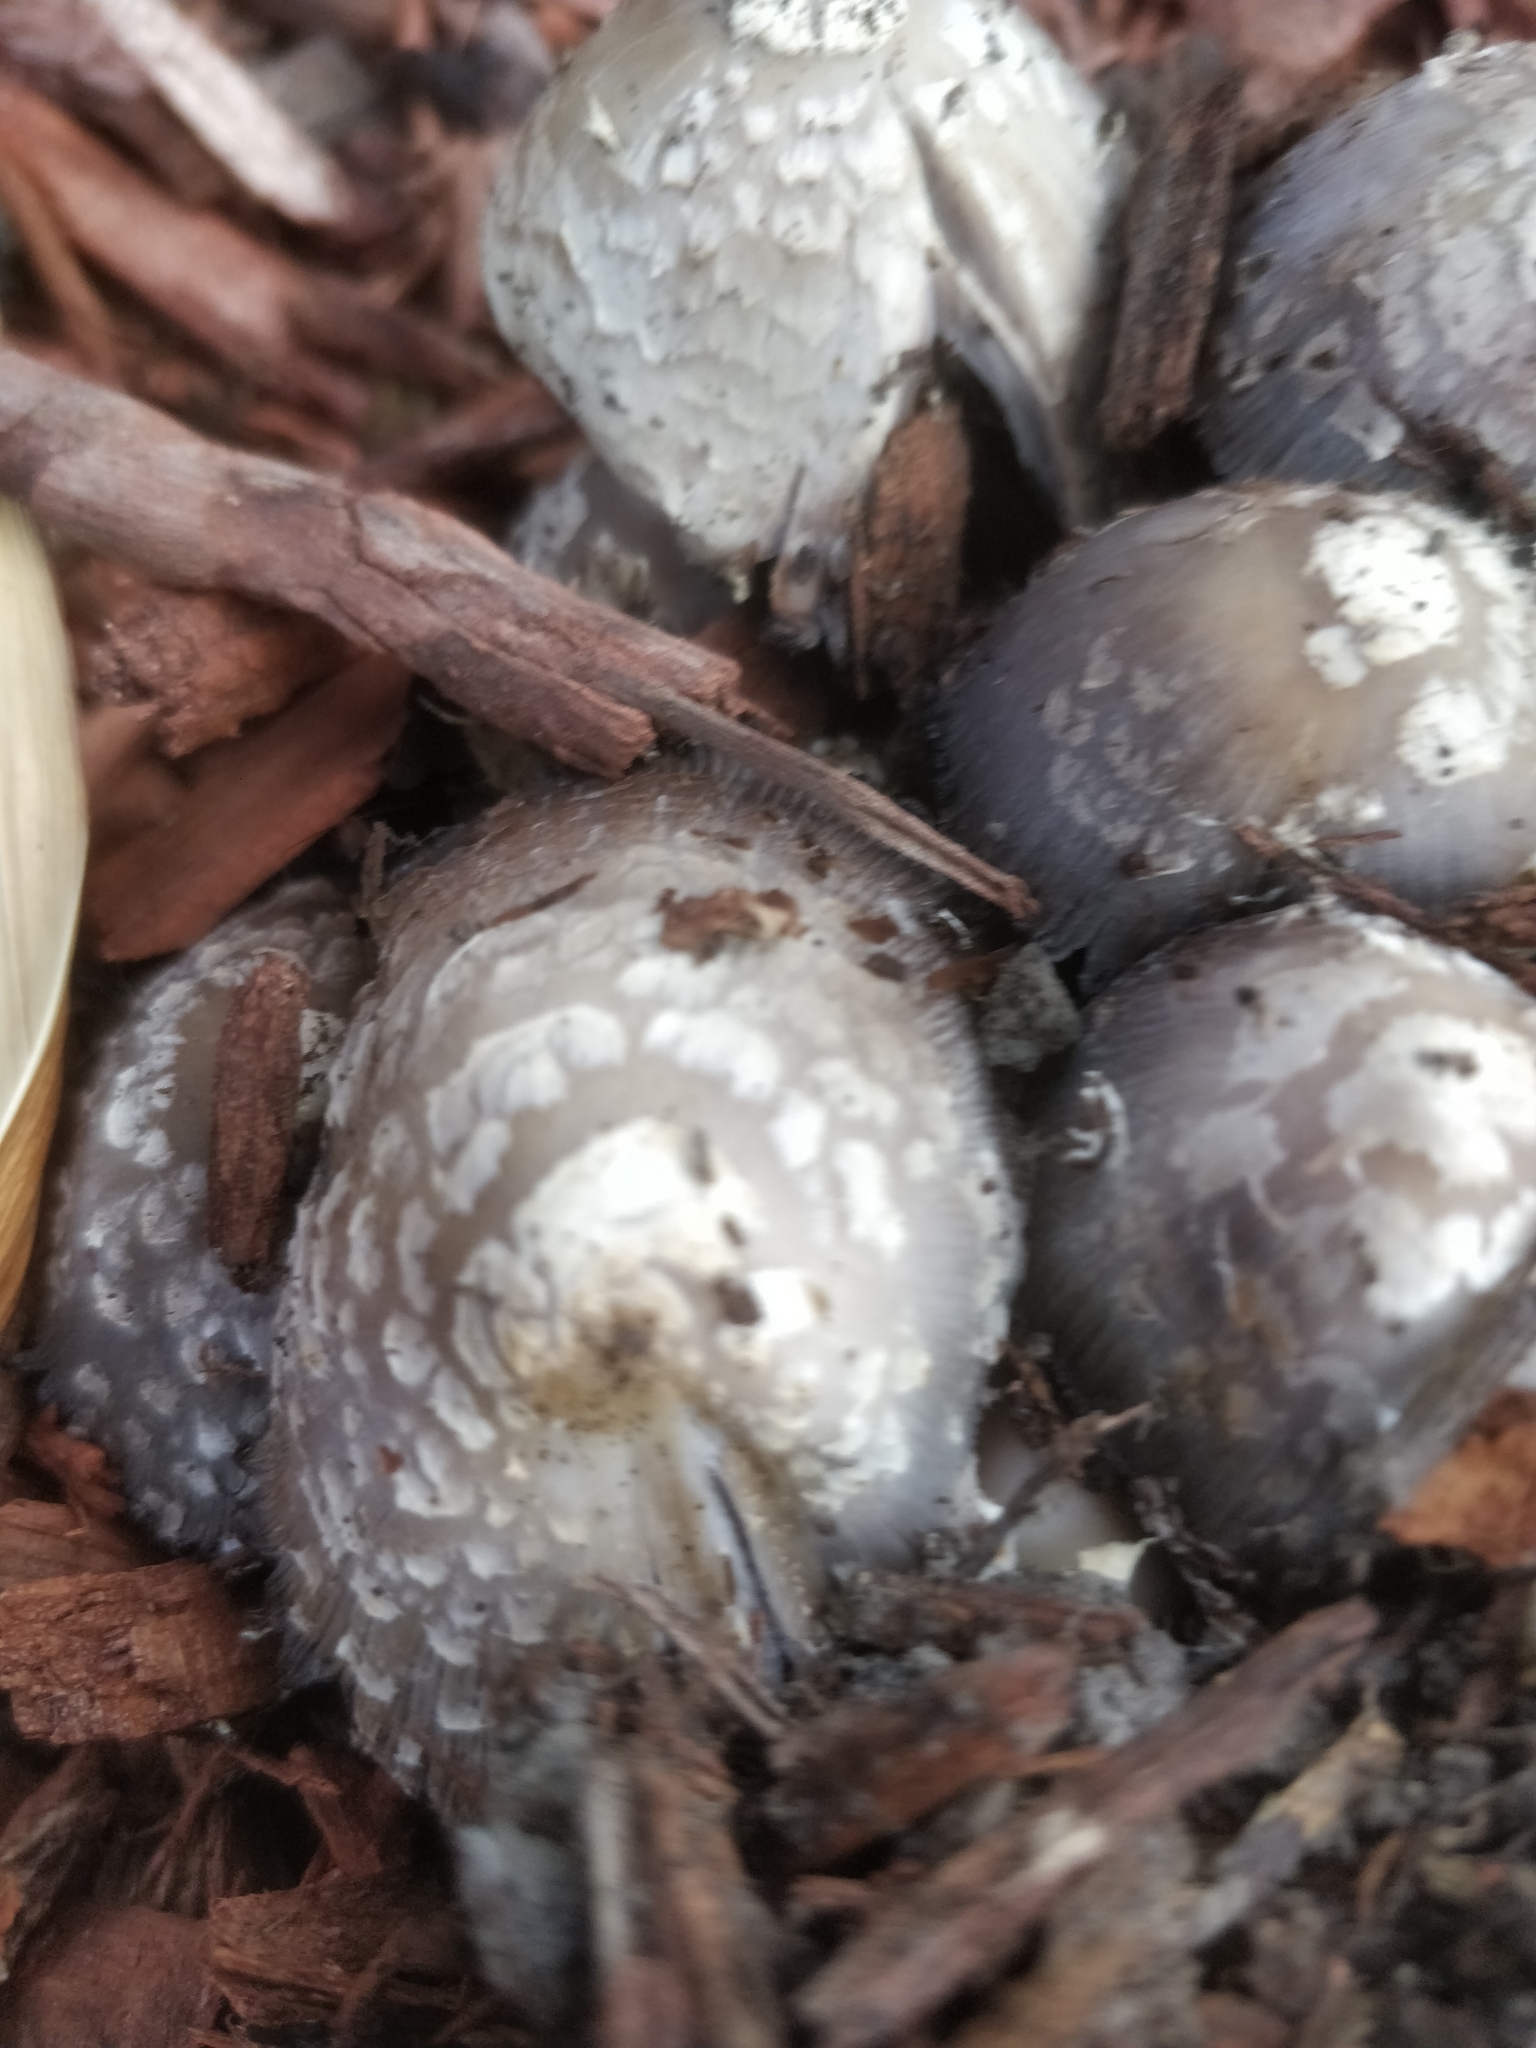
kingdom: Fungi
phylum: Basidiomycota
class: Agaricomycetes
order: Agaricales
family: Psathyrellaceae
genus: Coprinopsis
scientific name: Coprinopsis variegata
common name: Scaly ink cap
